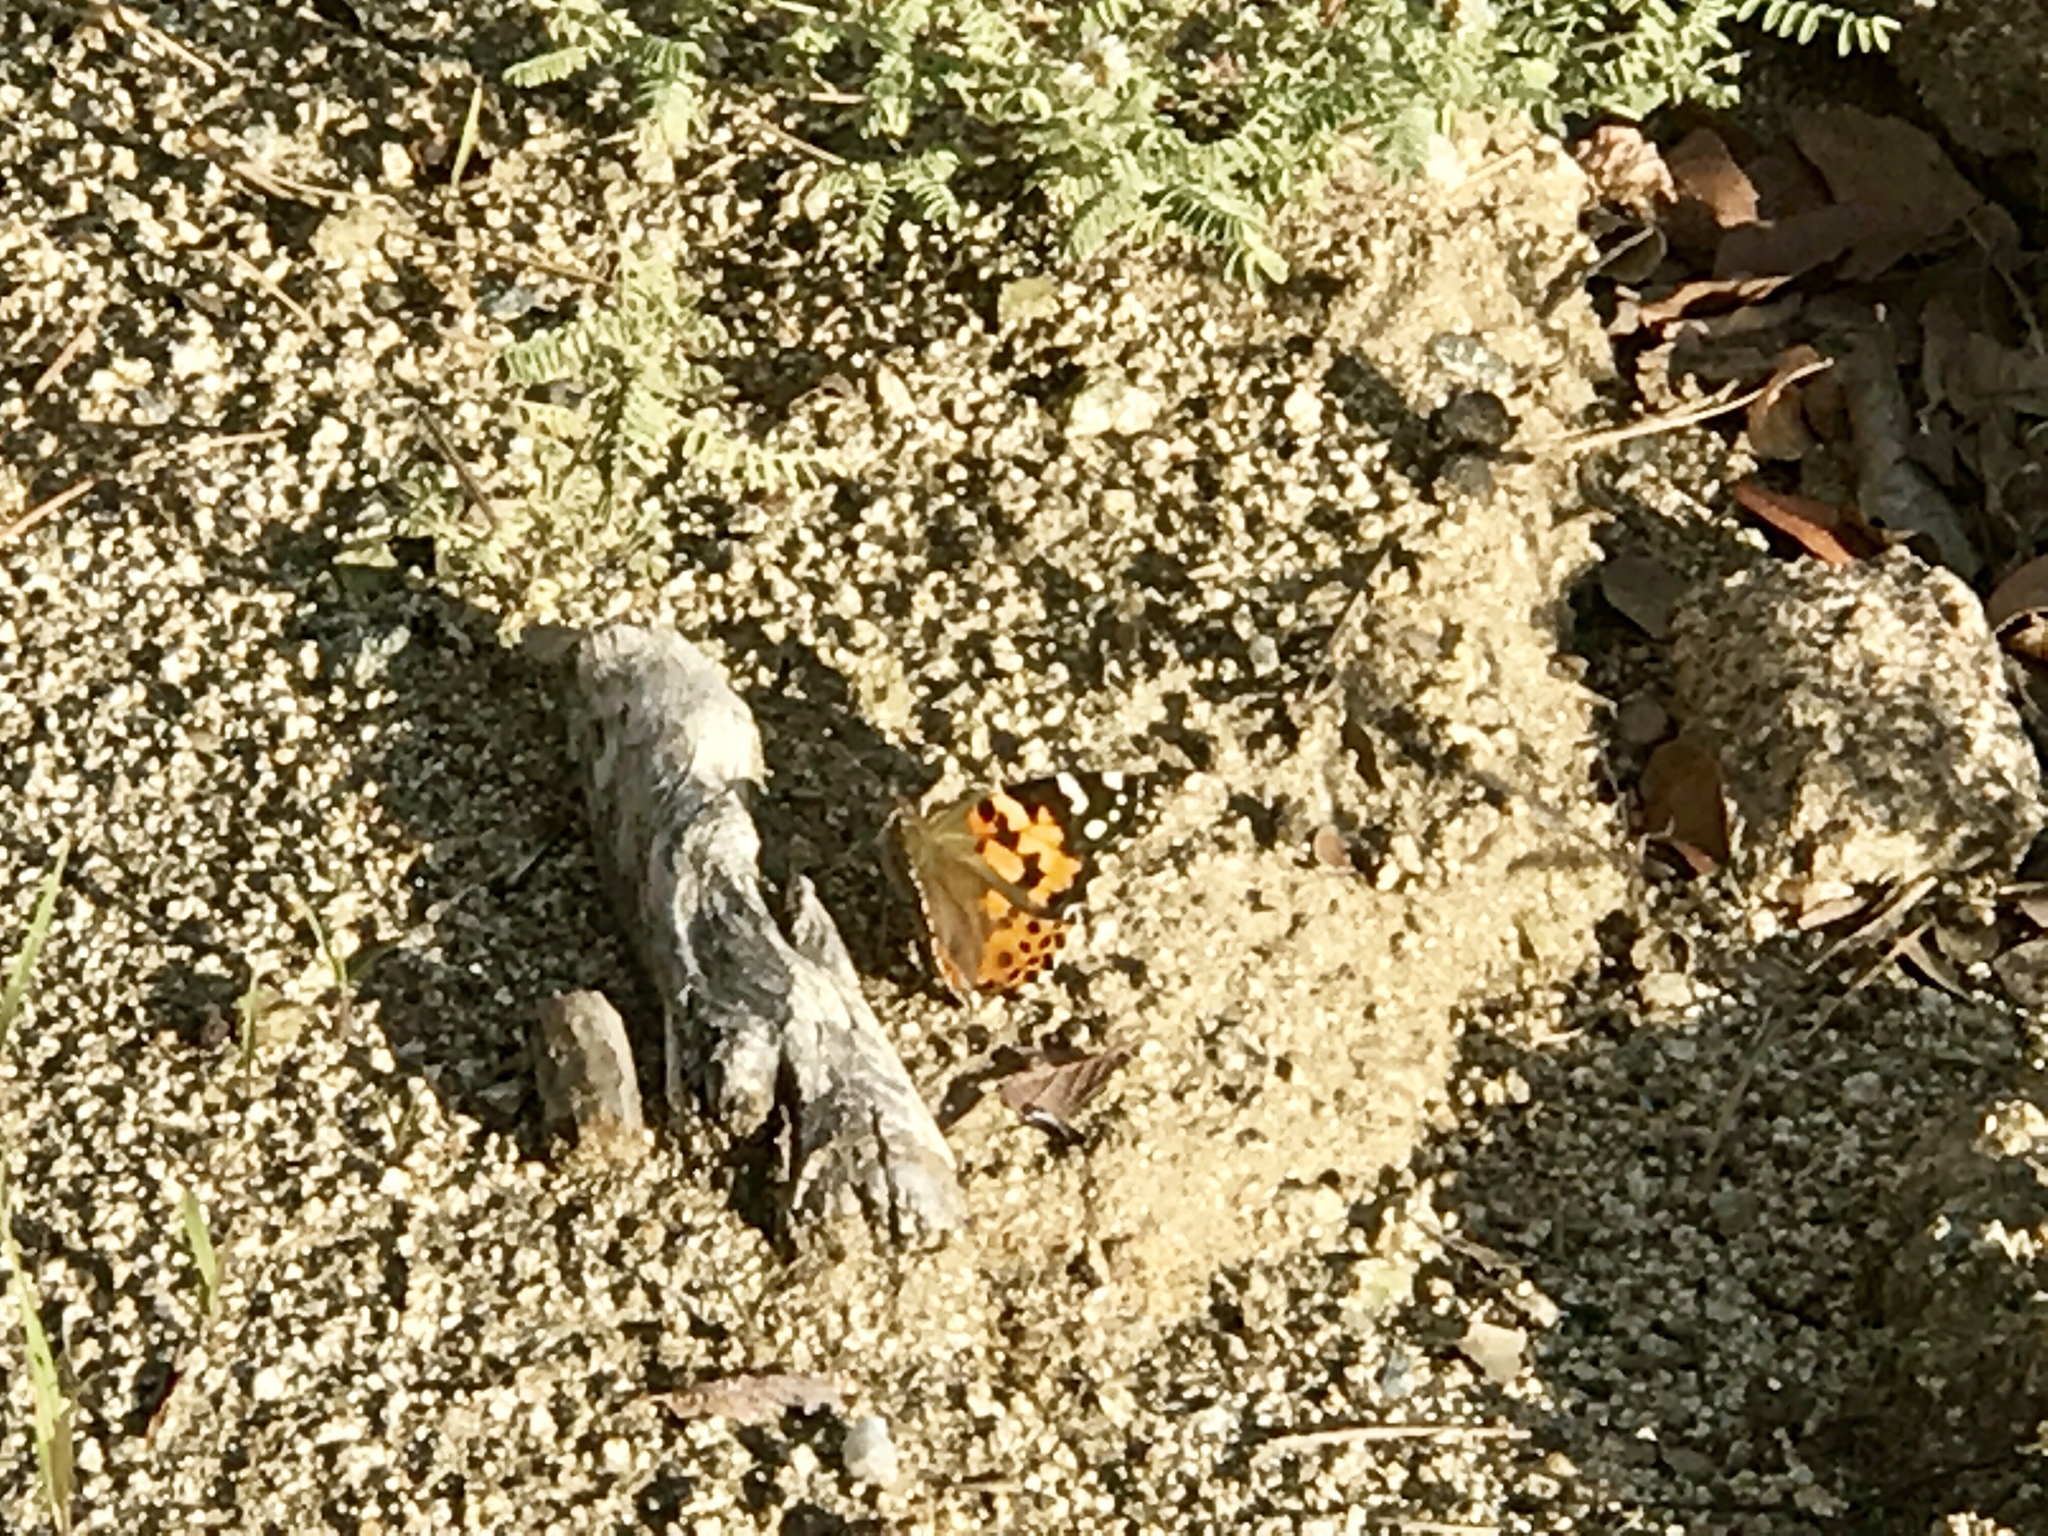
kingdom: Animalia
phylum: Arthropoda
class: Insecta
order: Lepidoptera
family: Nymphalidae
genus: Vanessa
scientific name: Vanessa cardui
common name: Painted lady
